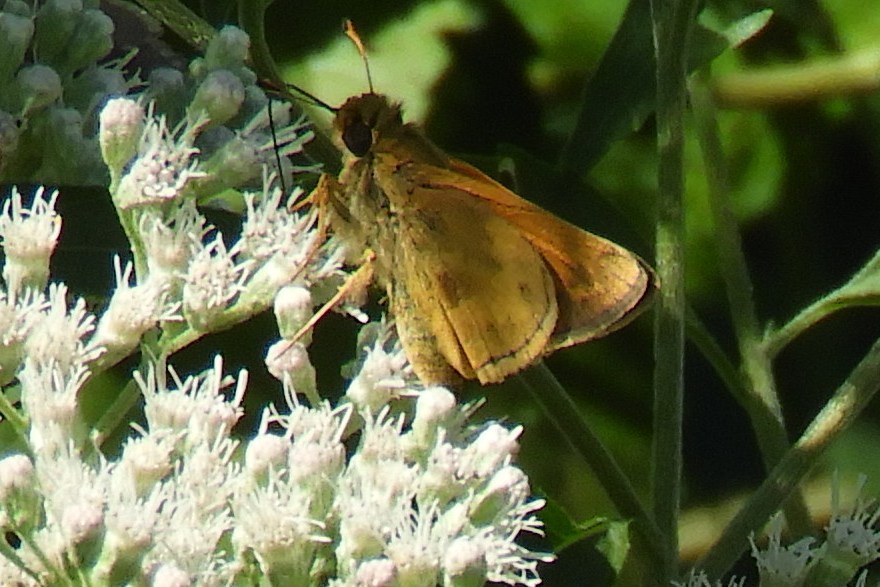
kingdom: Animalia
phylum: Arthropoda
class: Insecta
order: Lepidoptera
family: Hesperiidae
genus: Atalopedes
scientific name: Atalopedes
